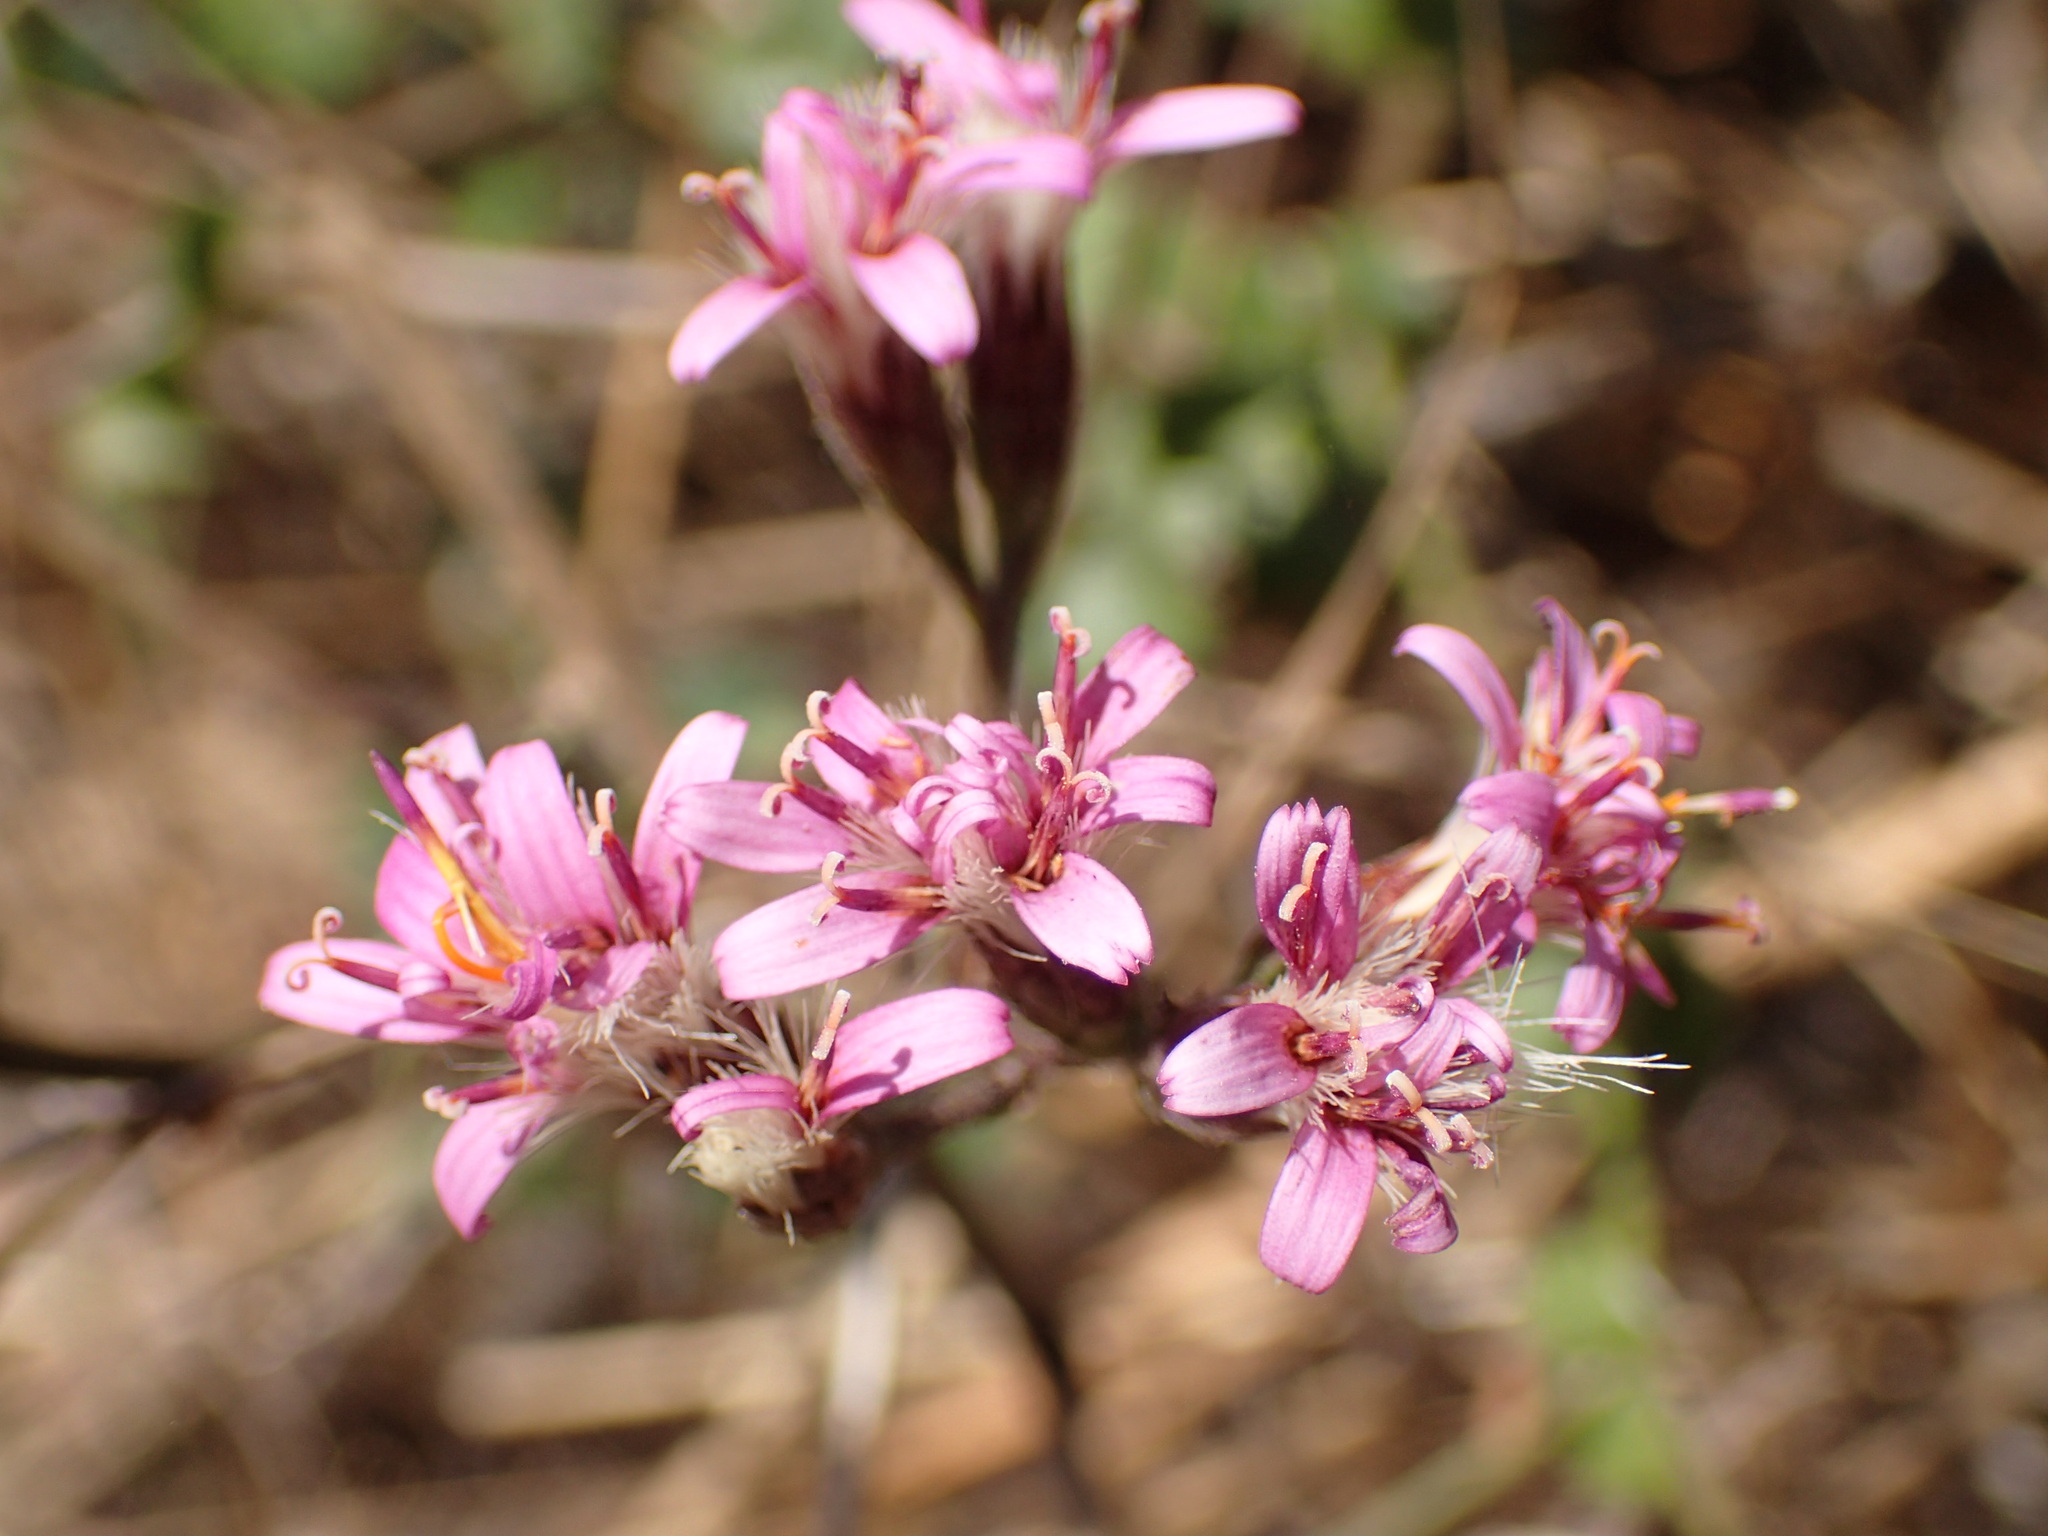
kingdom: Plantae
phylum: Tracheophyta
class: Magnoliopsida
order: Asterales
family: Asteraceae
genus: Acourtia
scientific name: Acourtia microcephala
